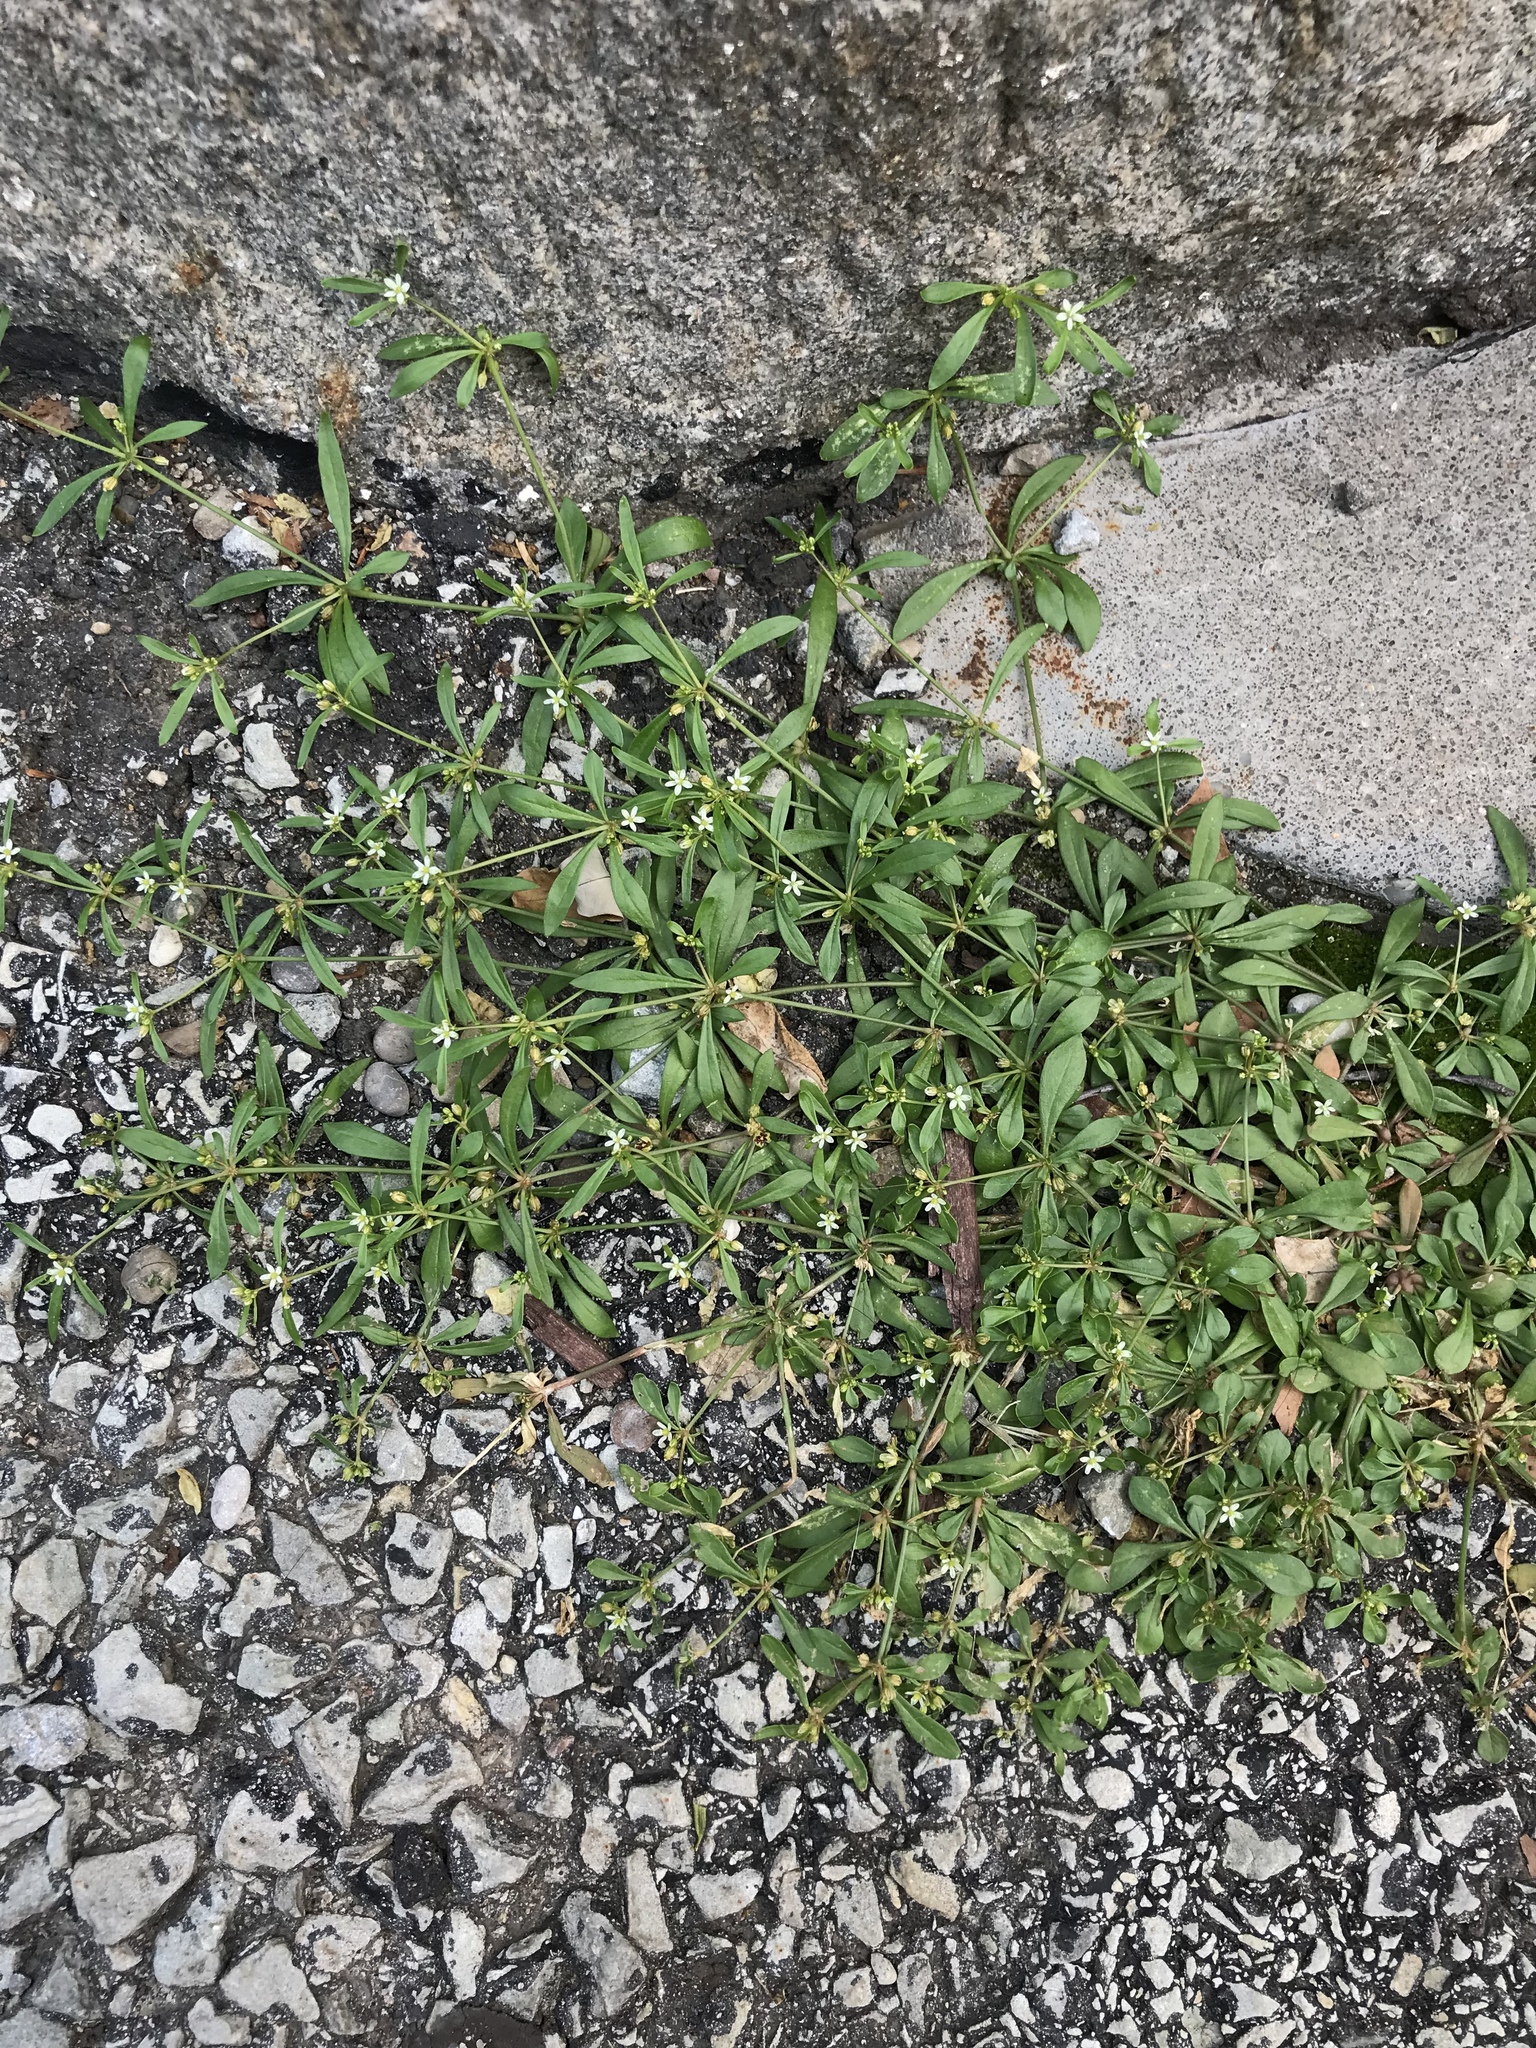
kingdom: Plantae
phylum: Tracheophyta
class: Magnoliopsida
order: Caryophyllales
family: Molluginaceae
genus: Mollugo
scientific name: Mollugo verticillata
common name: Green carpetweed
